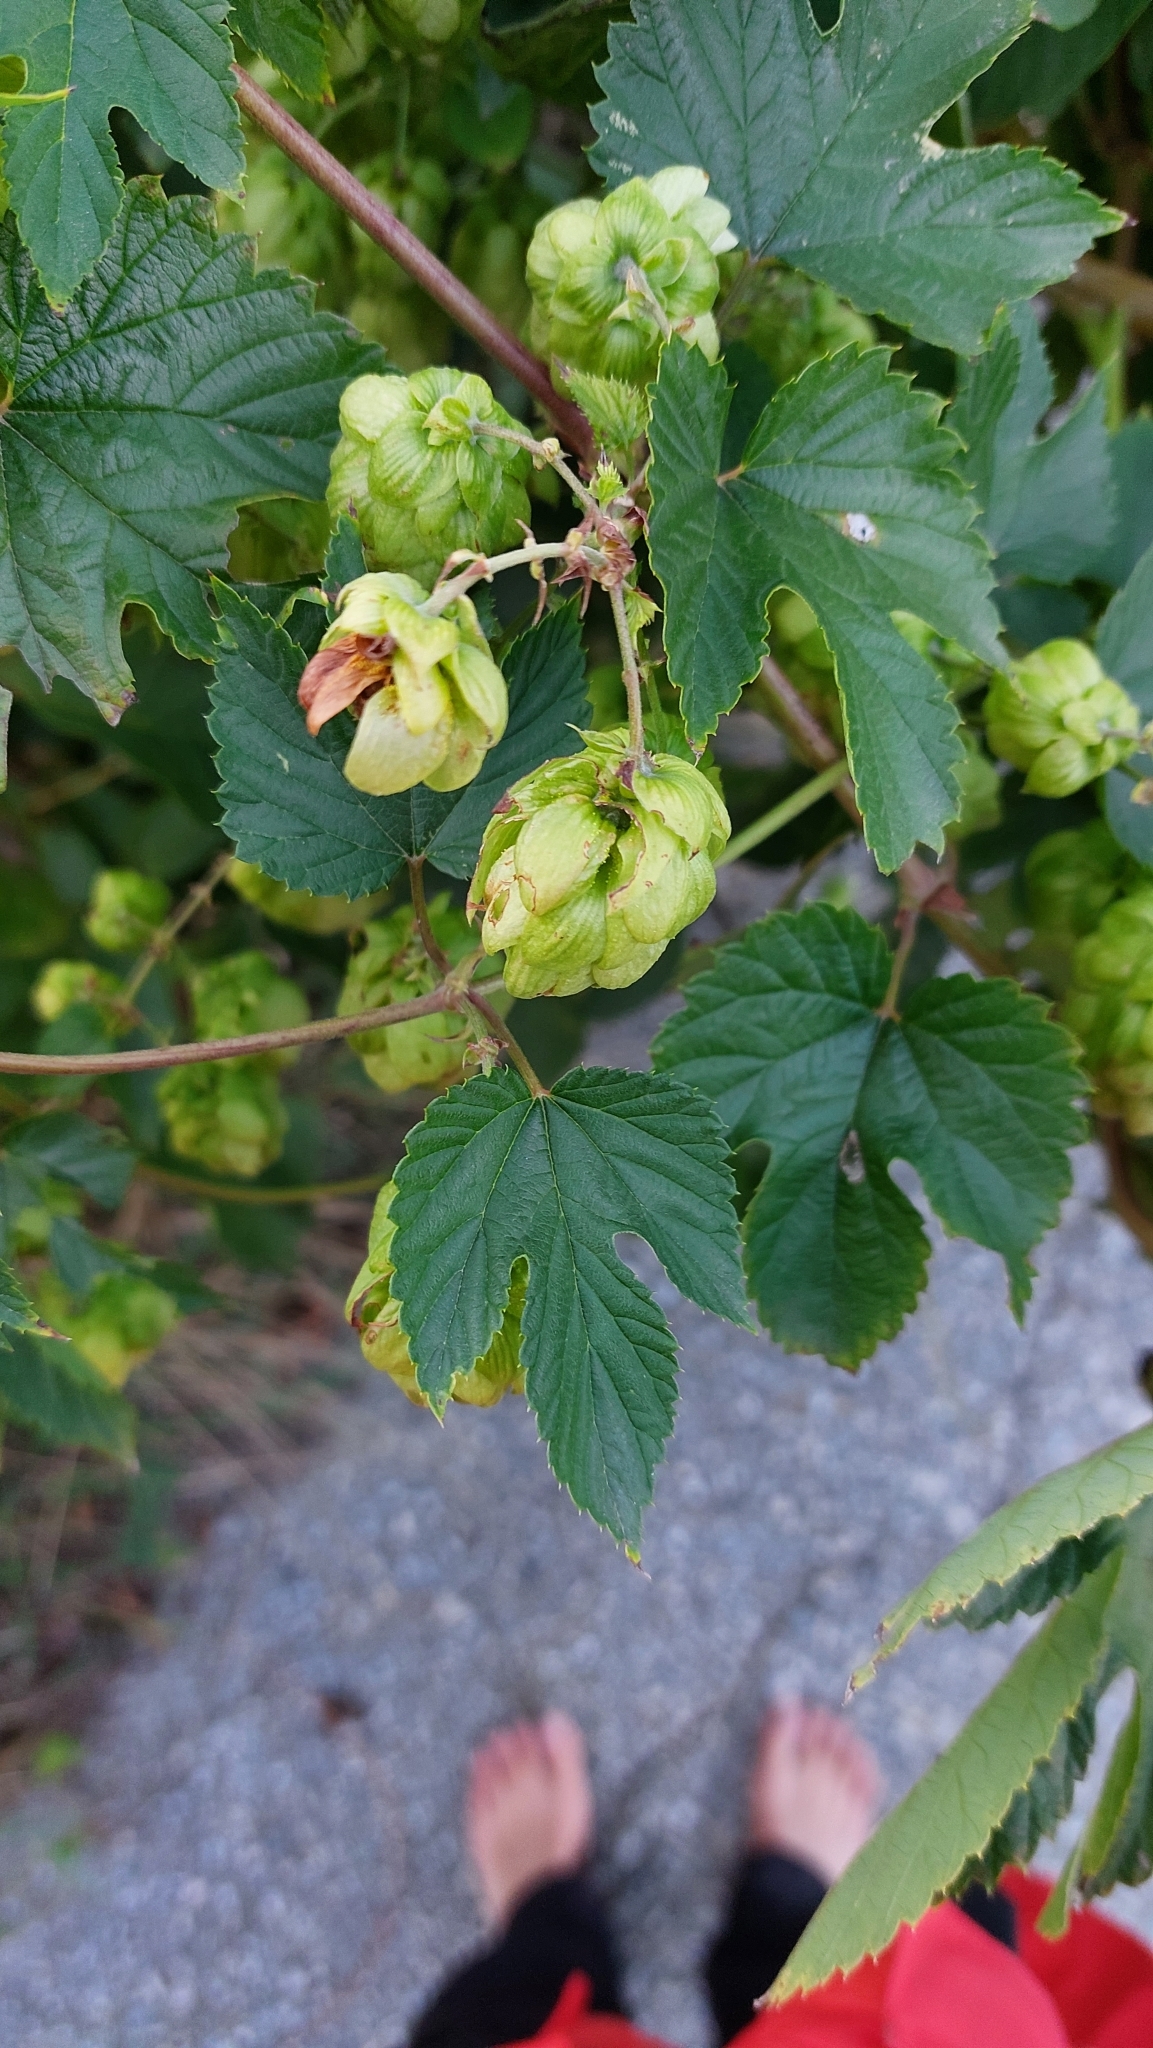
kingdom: Plantae
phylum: Tracheophyta
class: Magnoliopsida
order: Rosales
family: Cannabaceae
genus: Humulus
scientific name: Humulus lupulus
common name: Hop
